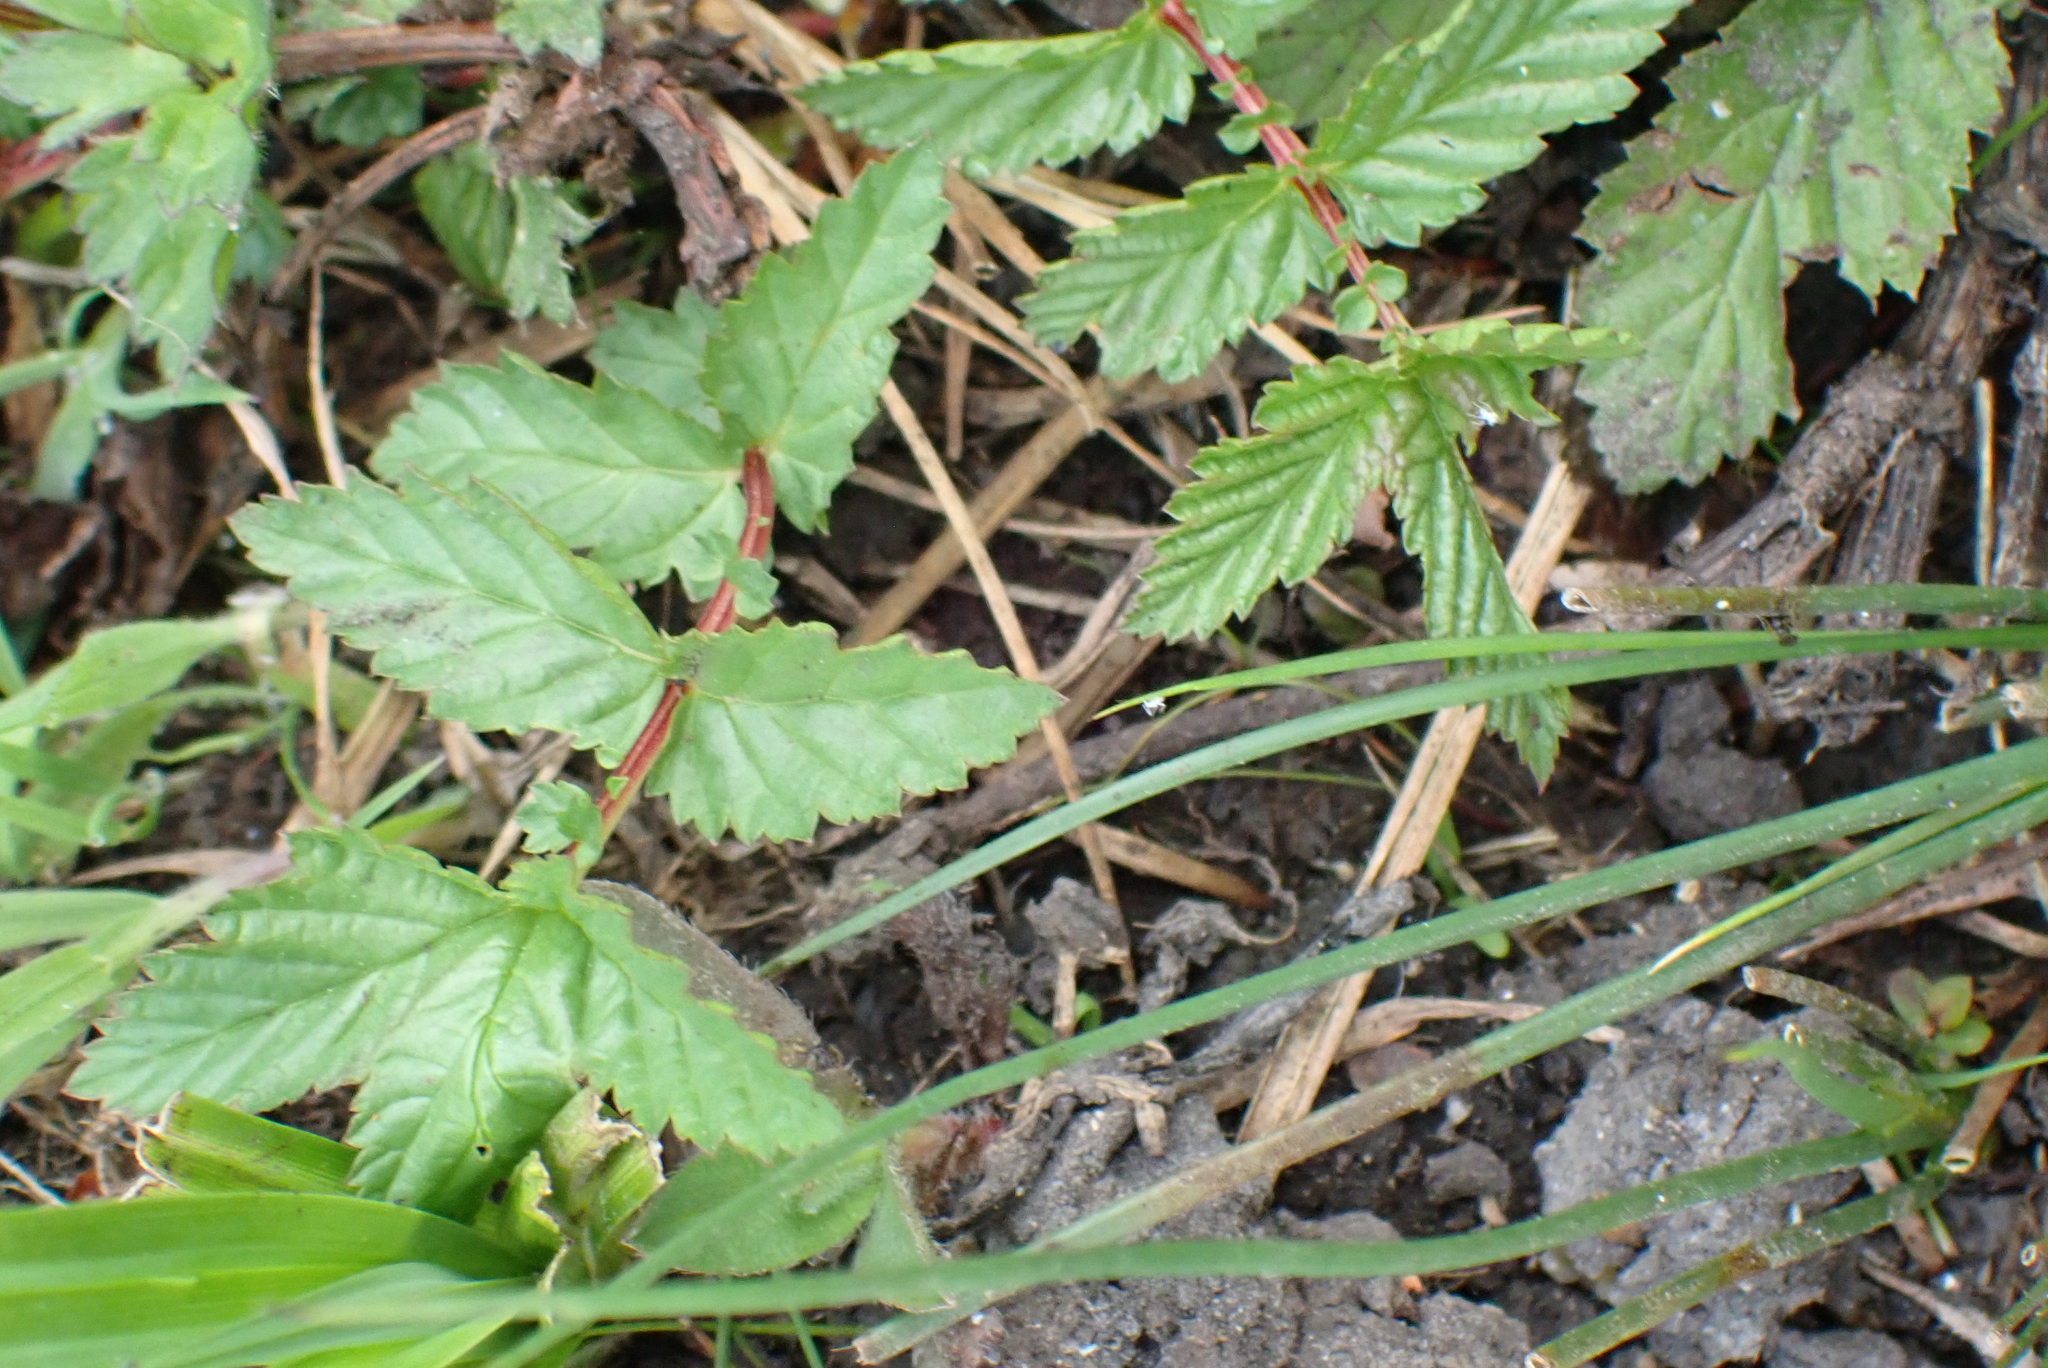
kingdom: Plantae
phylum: Tracheophyta
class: Magnoliopsida
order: Rosales
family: Rosaceae
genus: Filipendula
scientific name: Filipendula ulmaria
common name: Meadowsweet
